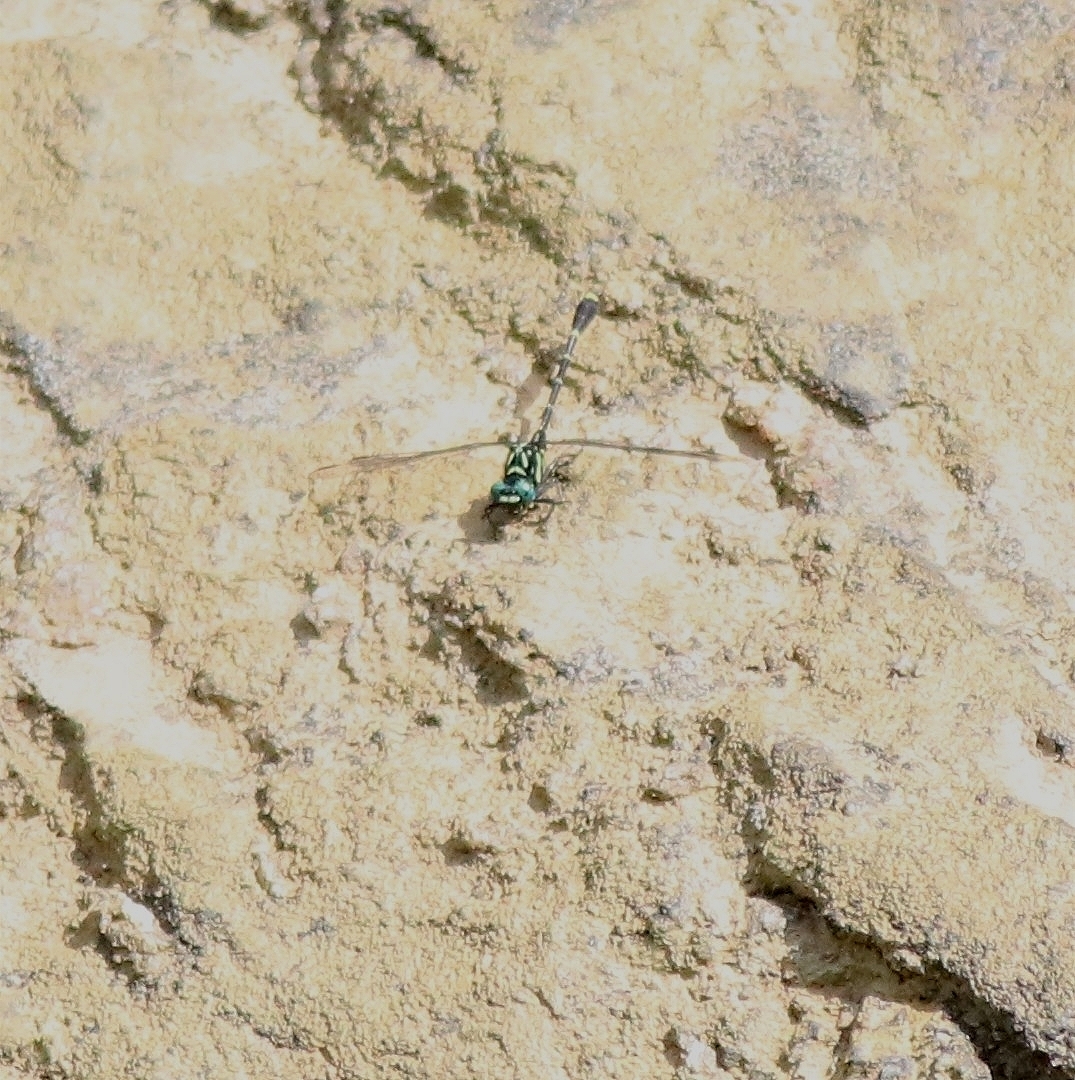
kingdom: Animalia
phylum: Arthropoda
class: Insecta
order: Odonata
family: Gomphidae
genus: Burmagomphus
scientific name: Burmagomphus laidlawi
